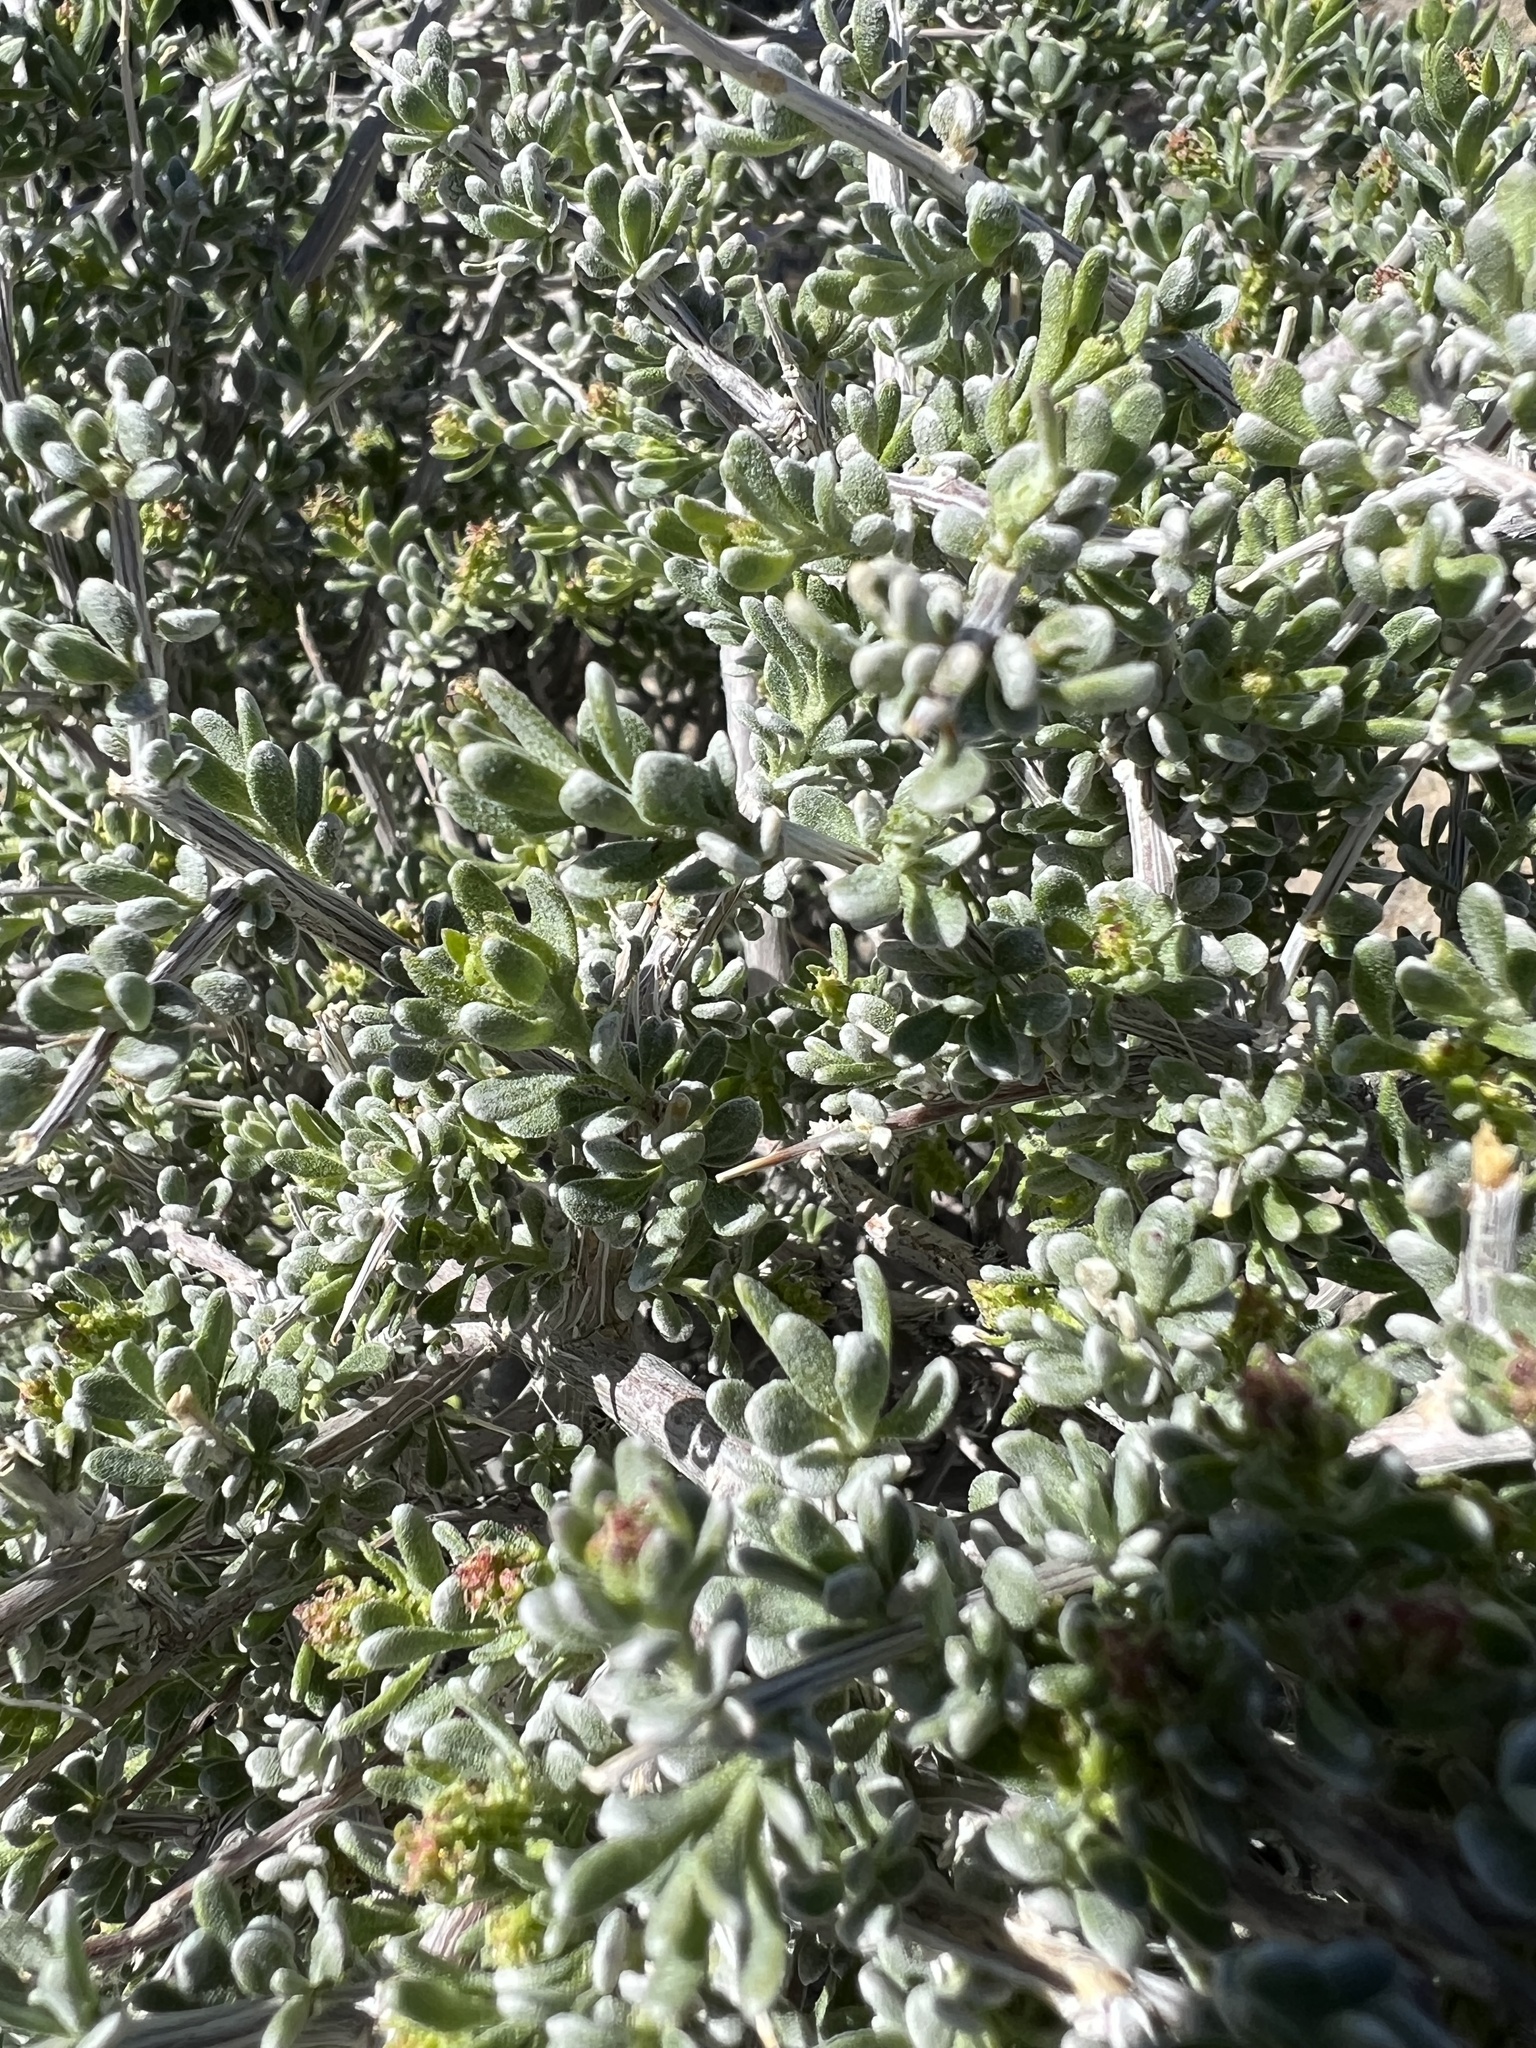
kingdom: Plantae
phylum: Tracheophyta
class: Magnoliopsida
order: Caryophyllales
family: Amaranthaceae
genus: Grayia
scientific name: Grayia spinosa
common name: Spiny hopsage
